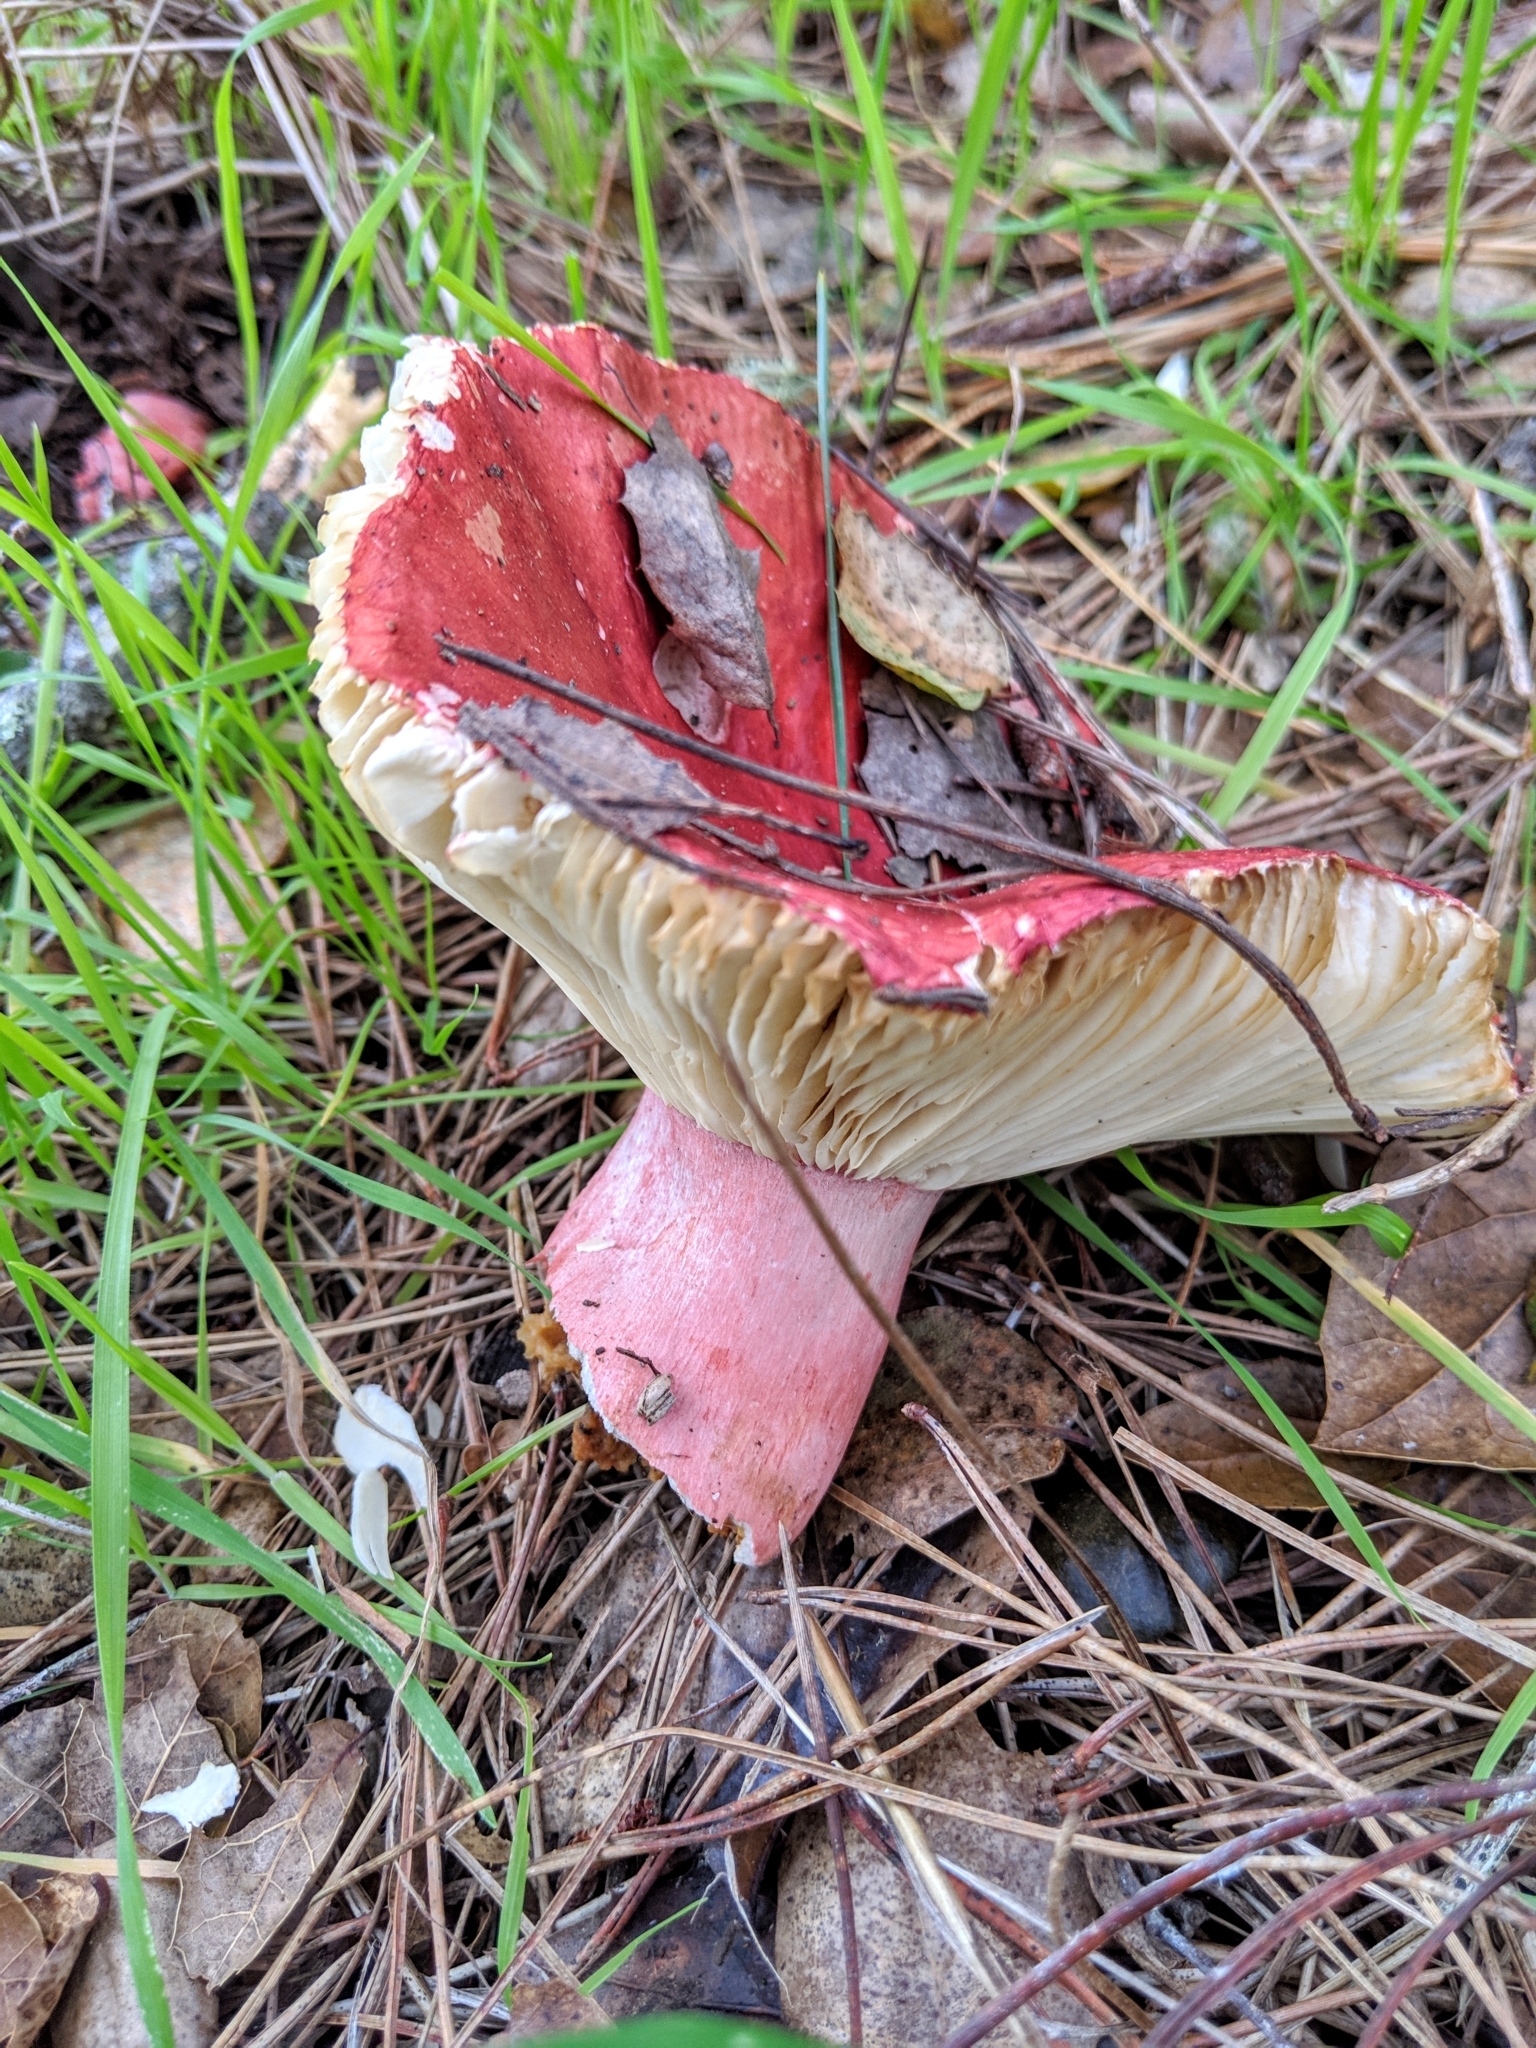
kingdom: Fungi
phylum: Basidiomycota
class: Agaricomycetes
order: Russulales
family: Russulaceae
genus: Russula
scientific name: Russula rhodocephala
